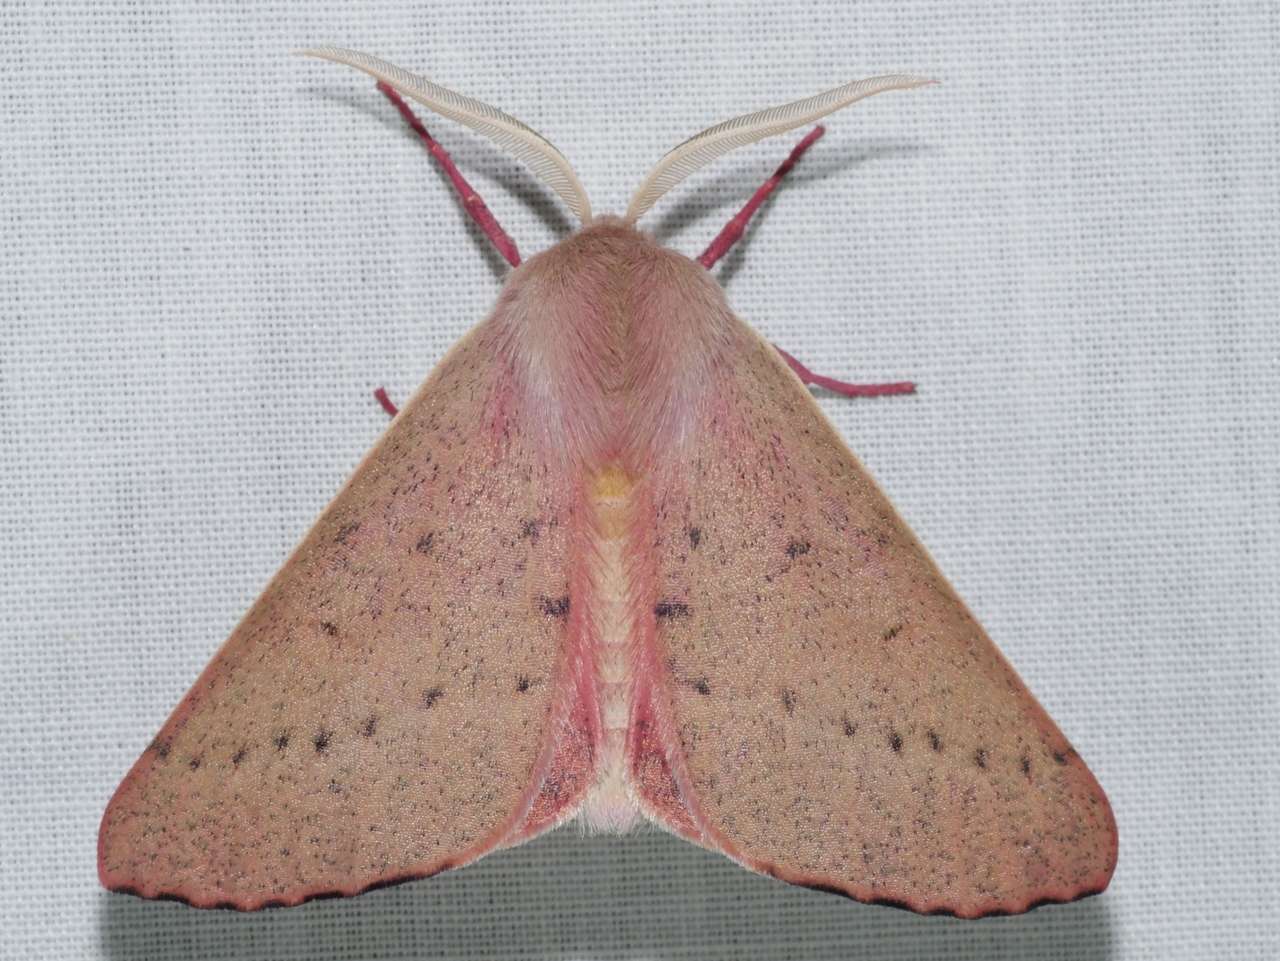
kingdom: Animalia
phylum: Arthropoda
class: Insecta
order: Lepidoptera
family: Geometridae
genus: Arhodia
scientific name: Arhodia lasiocamparia
